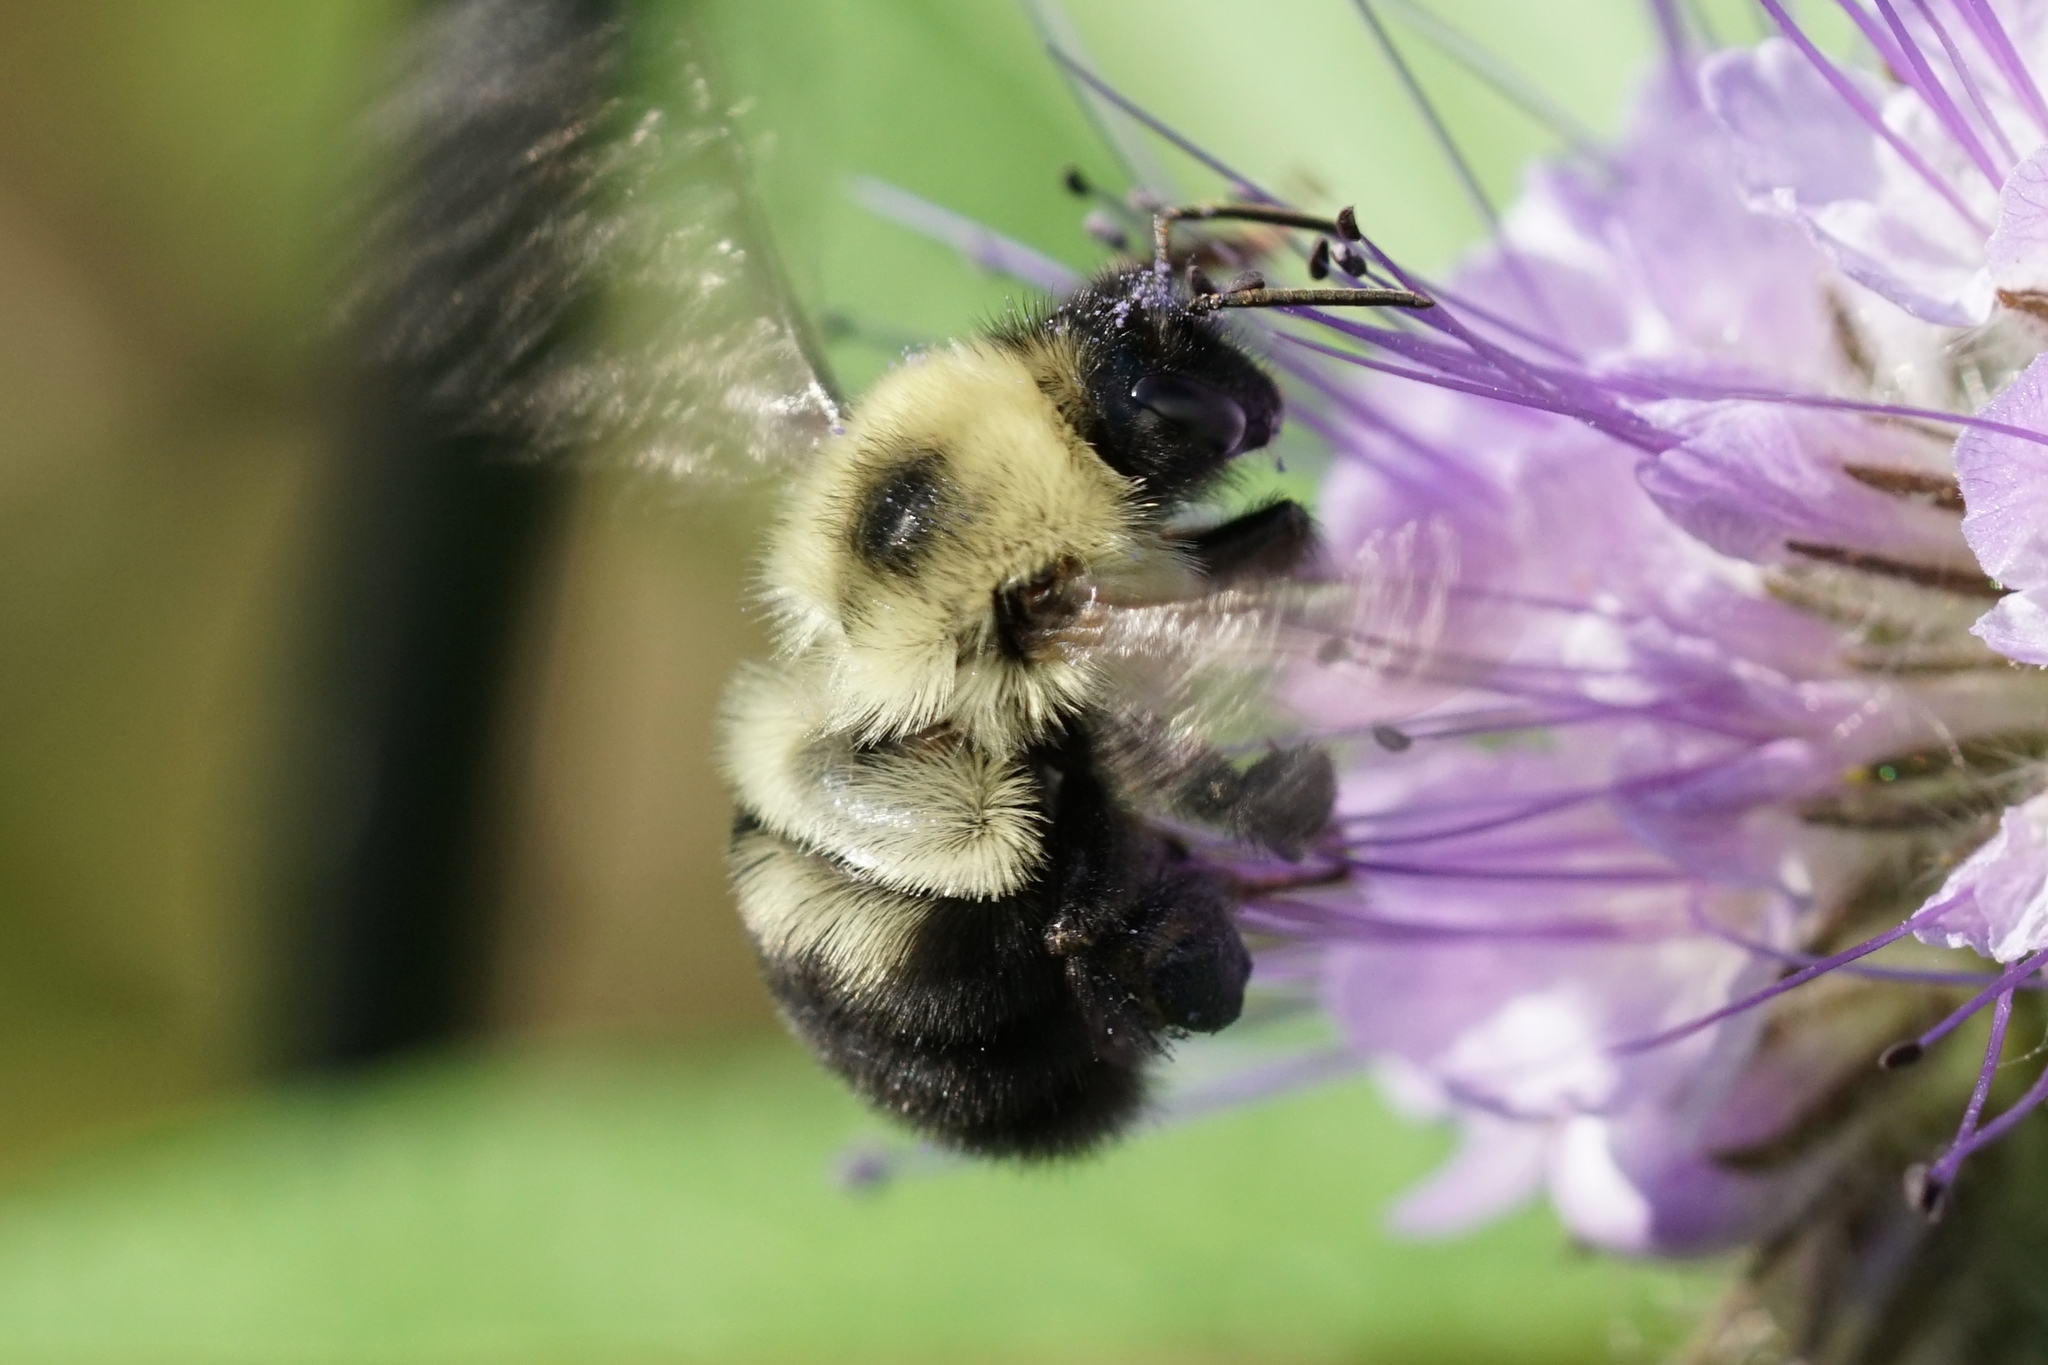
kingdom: Animalia
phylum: Arthropoda
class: Insecta
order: Hymenoptera
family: Apidae
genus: Bombus
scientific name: Bombus bimaculatus
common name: Two-spotted bumble bee
